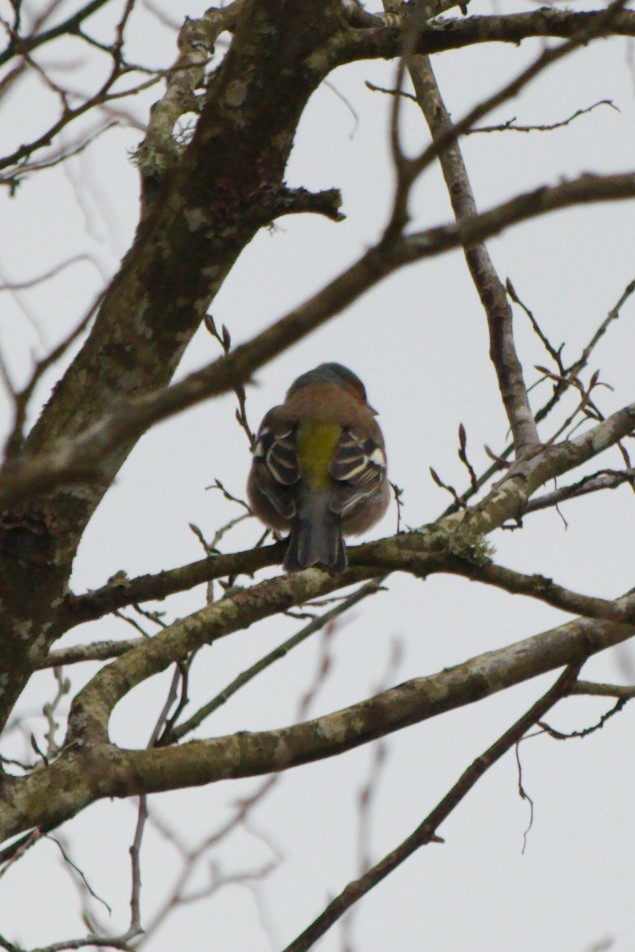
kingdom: Animalia
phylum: Chordata
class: Aves
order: Passeriformes
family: Fringillidae
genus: Fringilla
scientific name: Fringilla coelebs
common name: Common chaffinch
